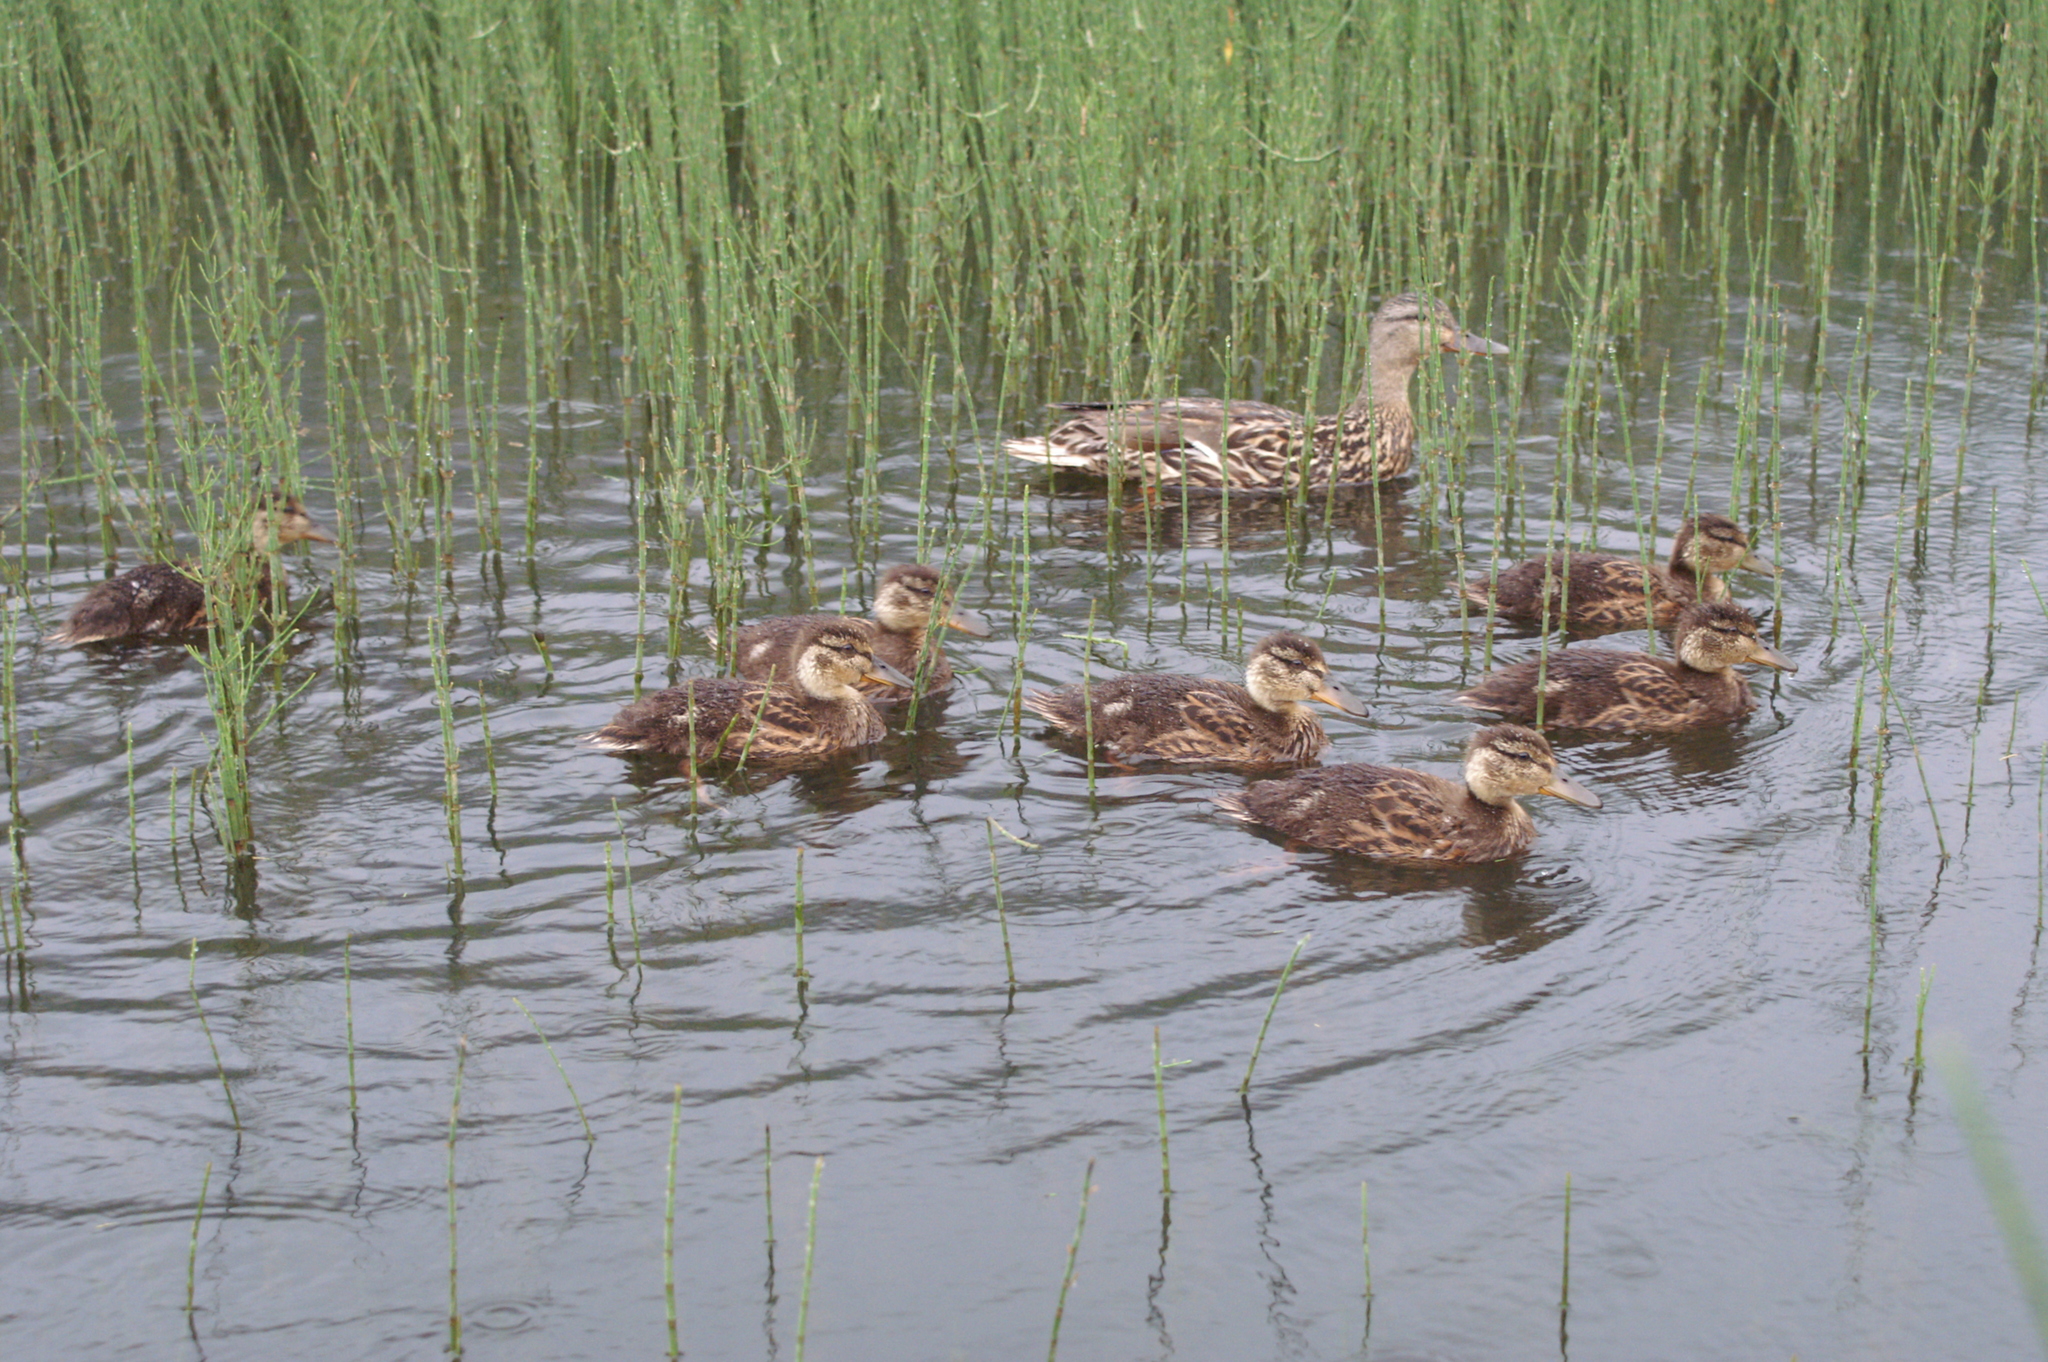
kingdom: Animalia
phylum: Chordata
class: Aves
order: Anseriformes
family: Anatidae
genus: Anas
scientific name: Anas platyrhynchos
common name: Mallard
